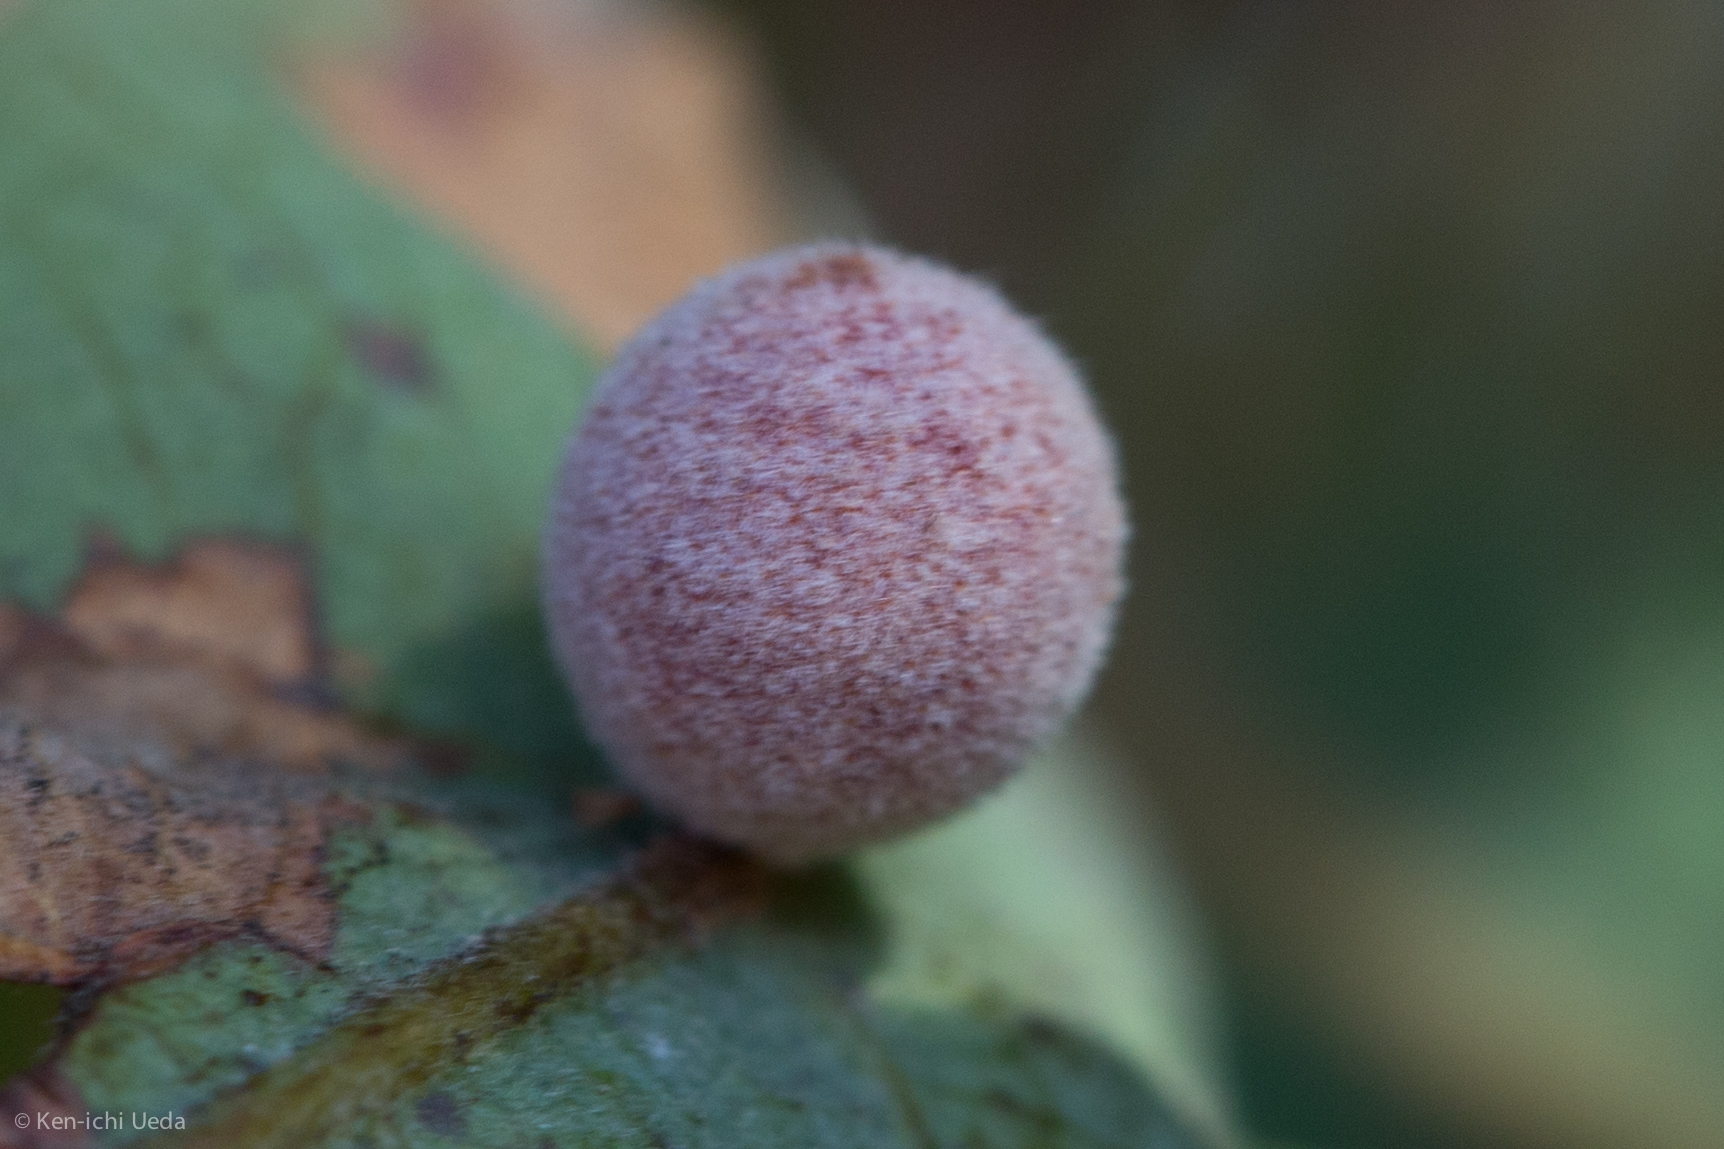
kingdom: Animalia
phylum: Arthropoda
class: Insecta
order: Hymenoptera
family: Cynipidae
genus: Cynips
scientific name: Cynips
